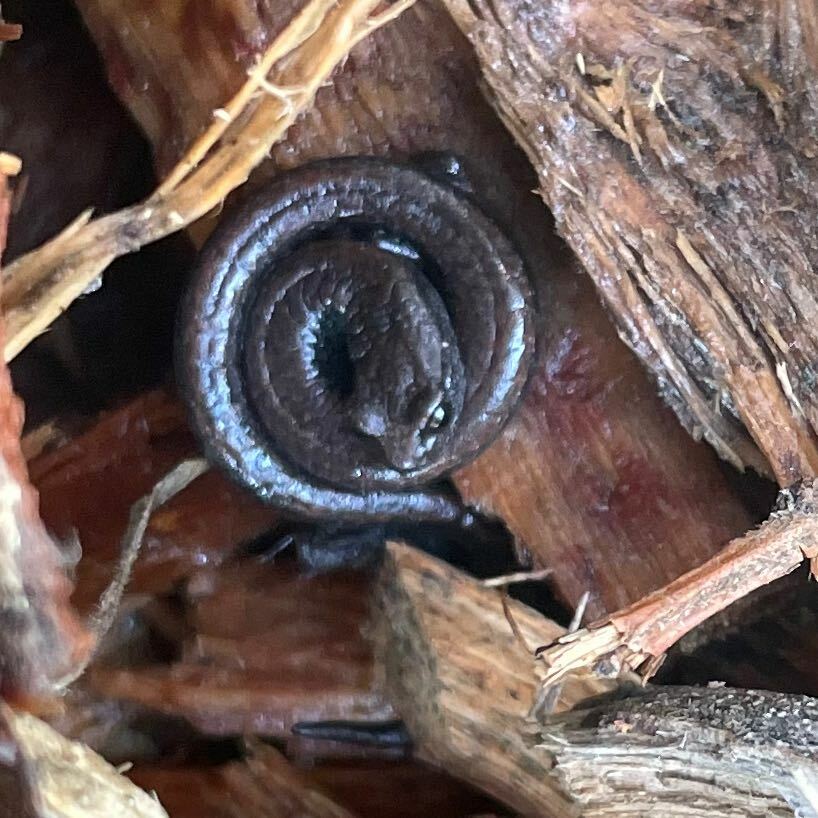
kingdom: Animalia
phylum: Chordata
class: Amphibia
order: Caudata
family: Plethodontidae
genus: Batrachoseps
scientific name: Batrachoseps attenuatus
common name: California slender salamander
